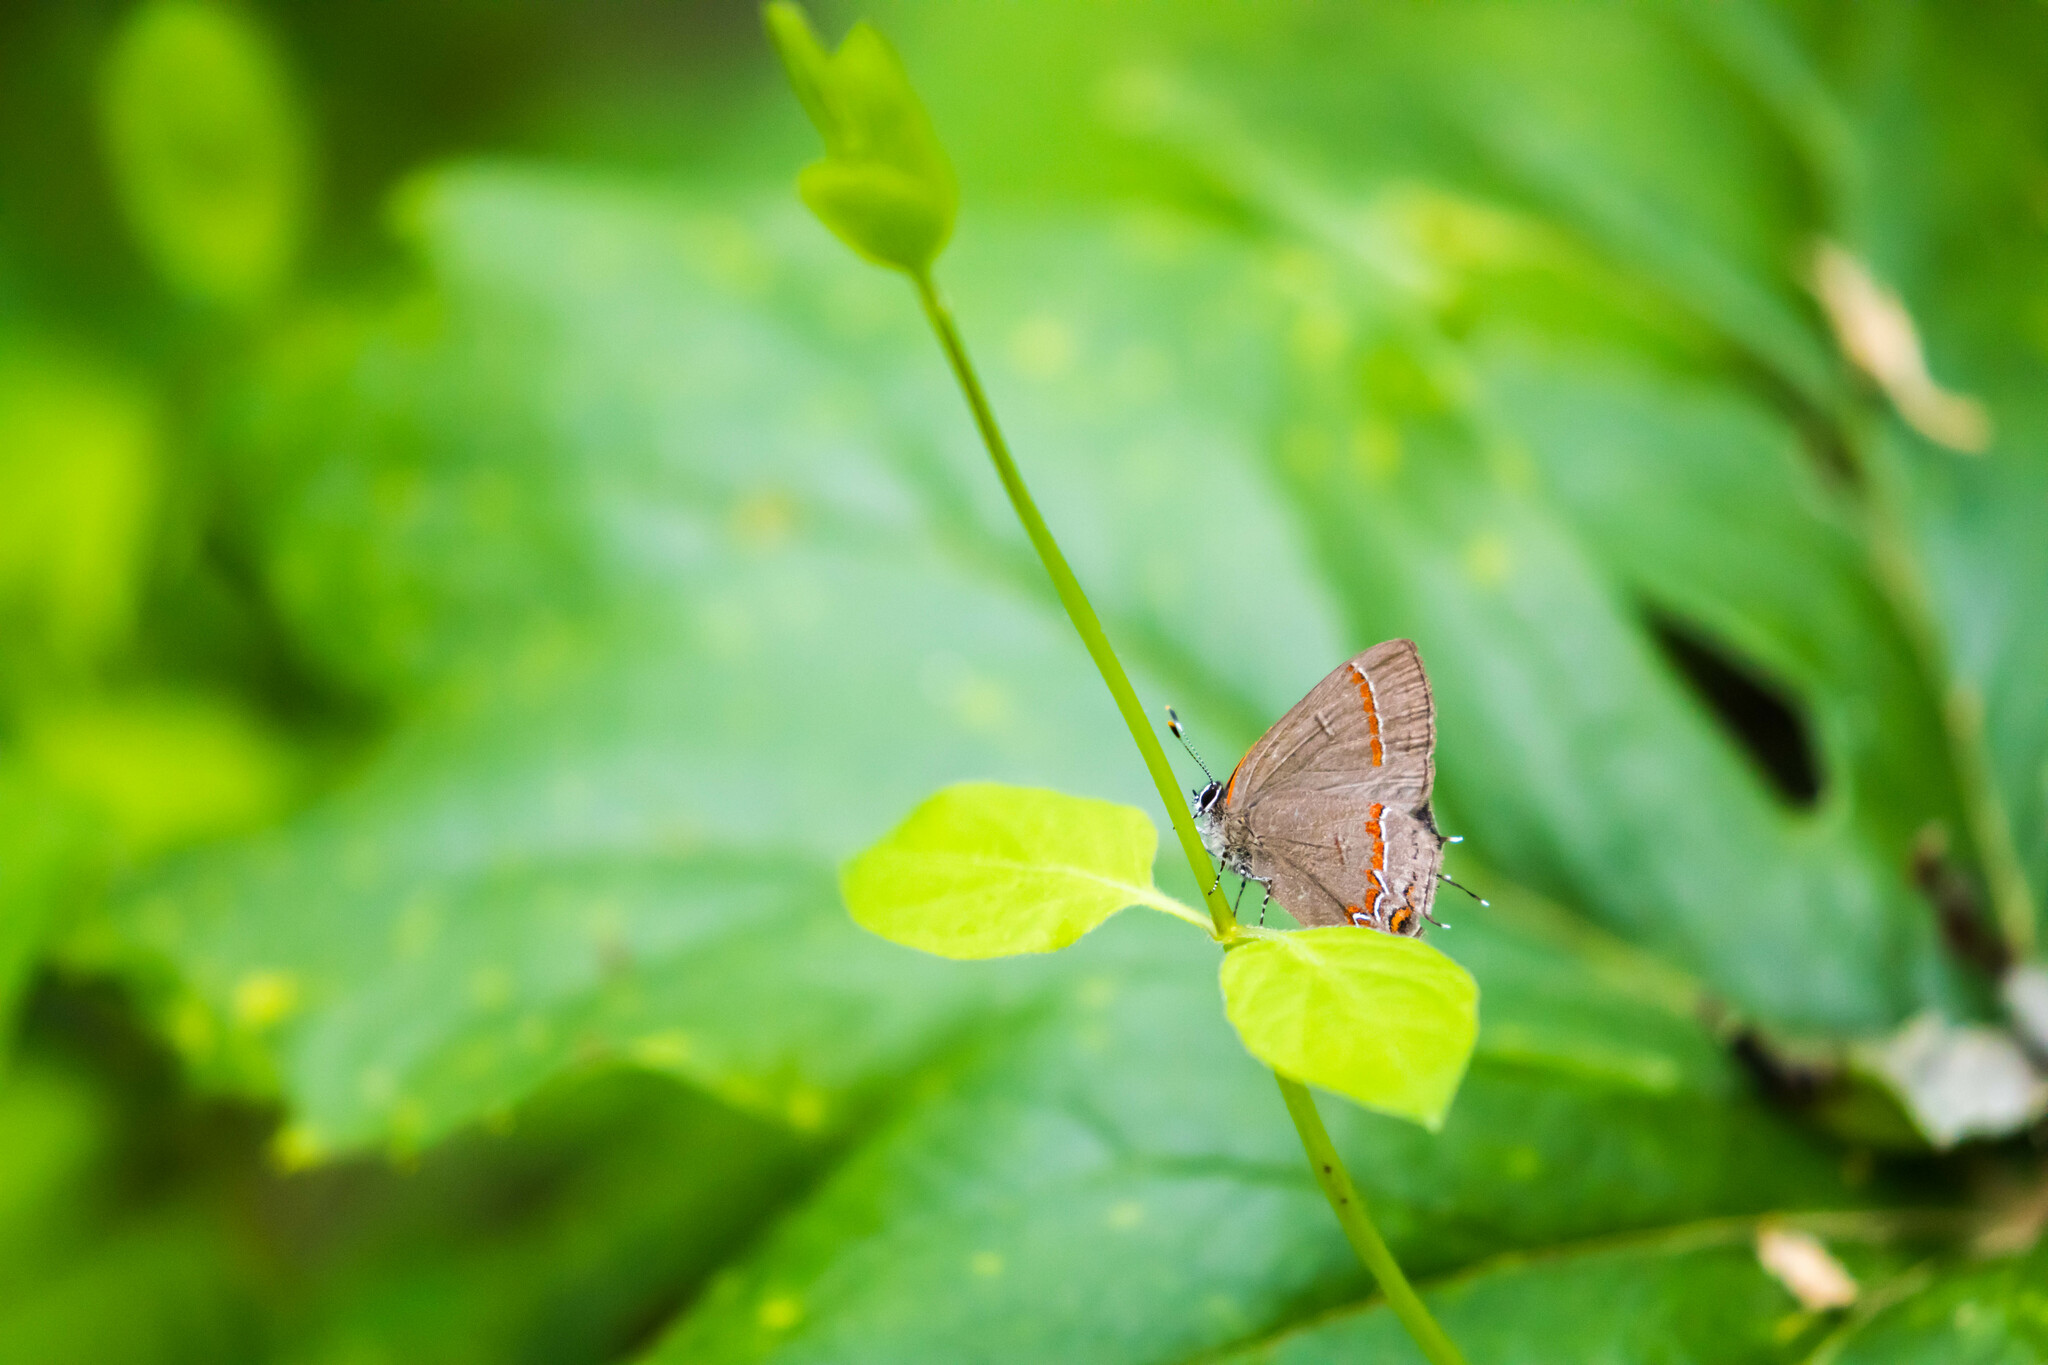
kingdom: Animalia
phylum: Arthropoda
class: Insecta
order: Lepidoptera
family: Lycaenidae
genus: Calycopis
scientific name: Calycopis cecrops
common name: Red-banded hairstreak
